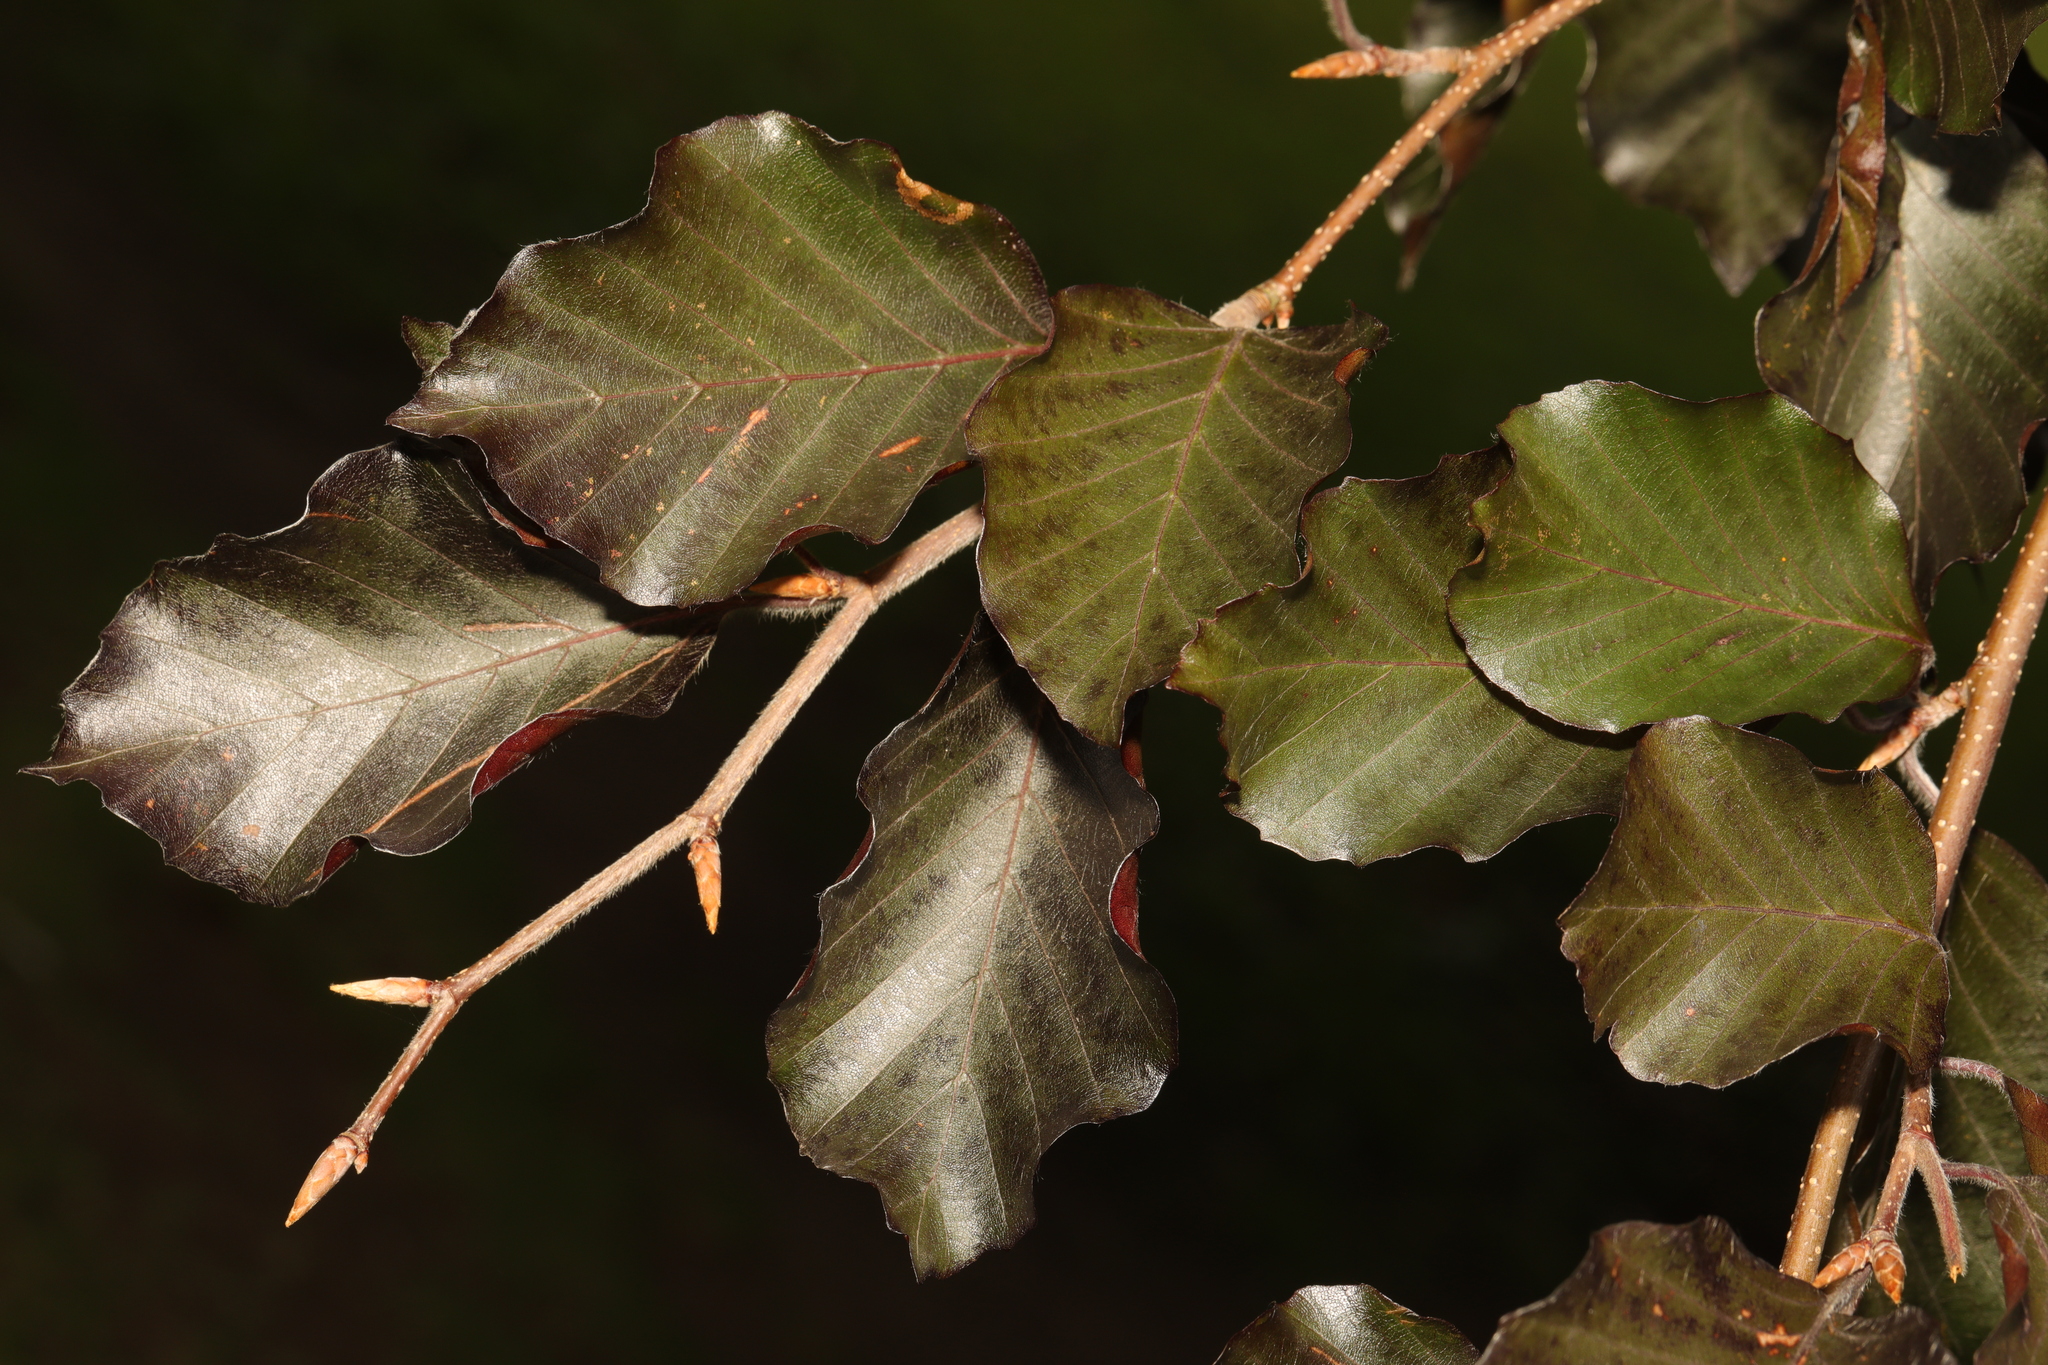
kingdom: Plantae
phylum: Tracheophyta
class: Magnoliopsida
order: Fagales
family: Fagaceae
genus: Fagus
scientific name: Fagus sylvatica
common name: Beech
